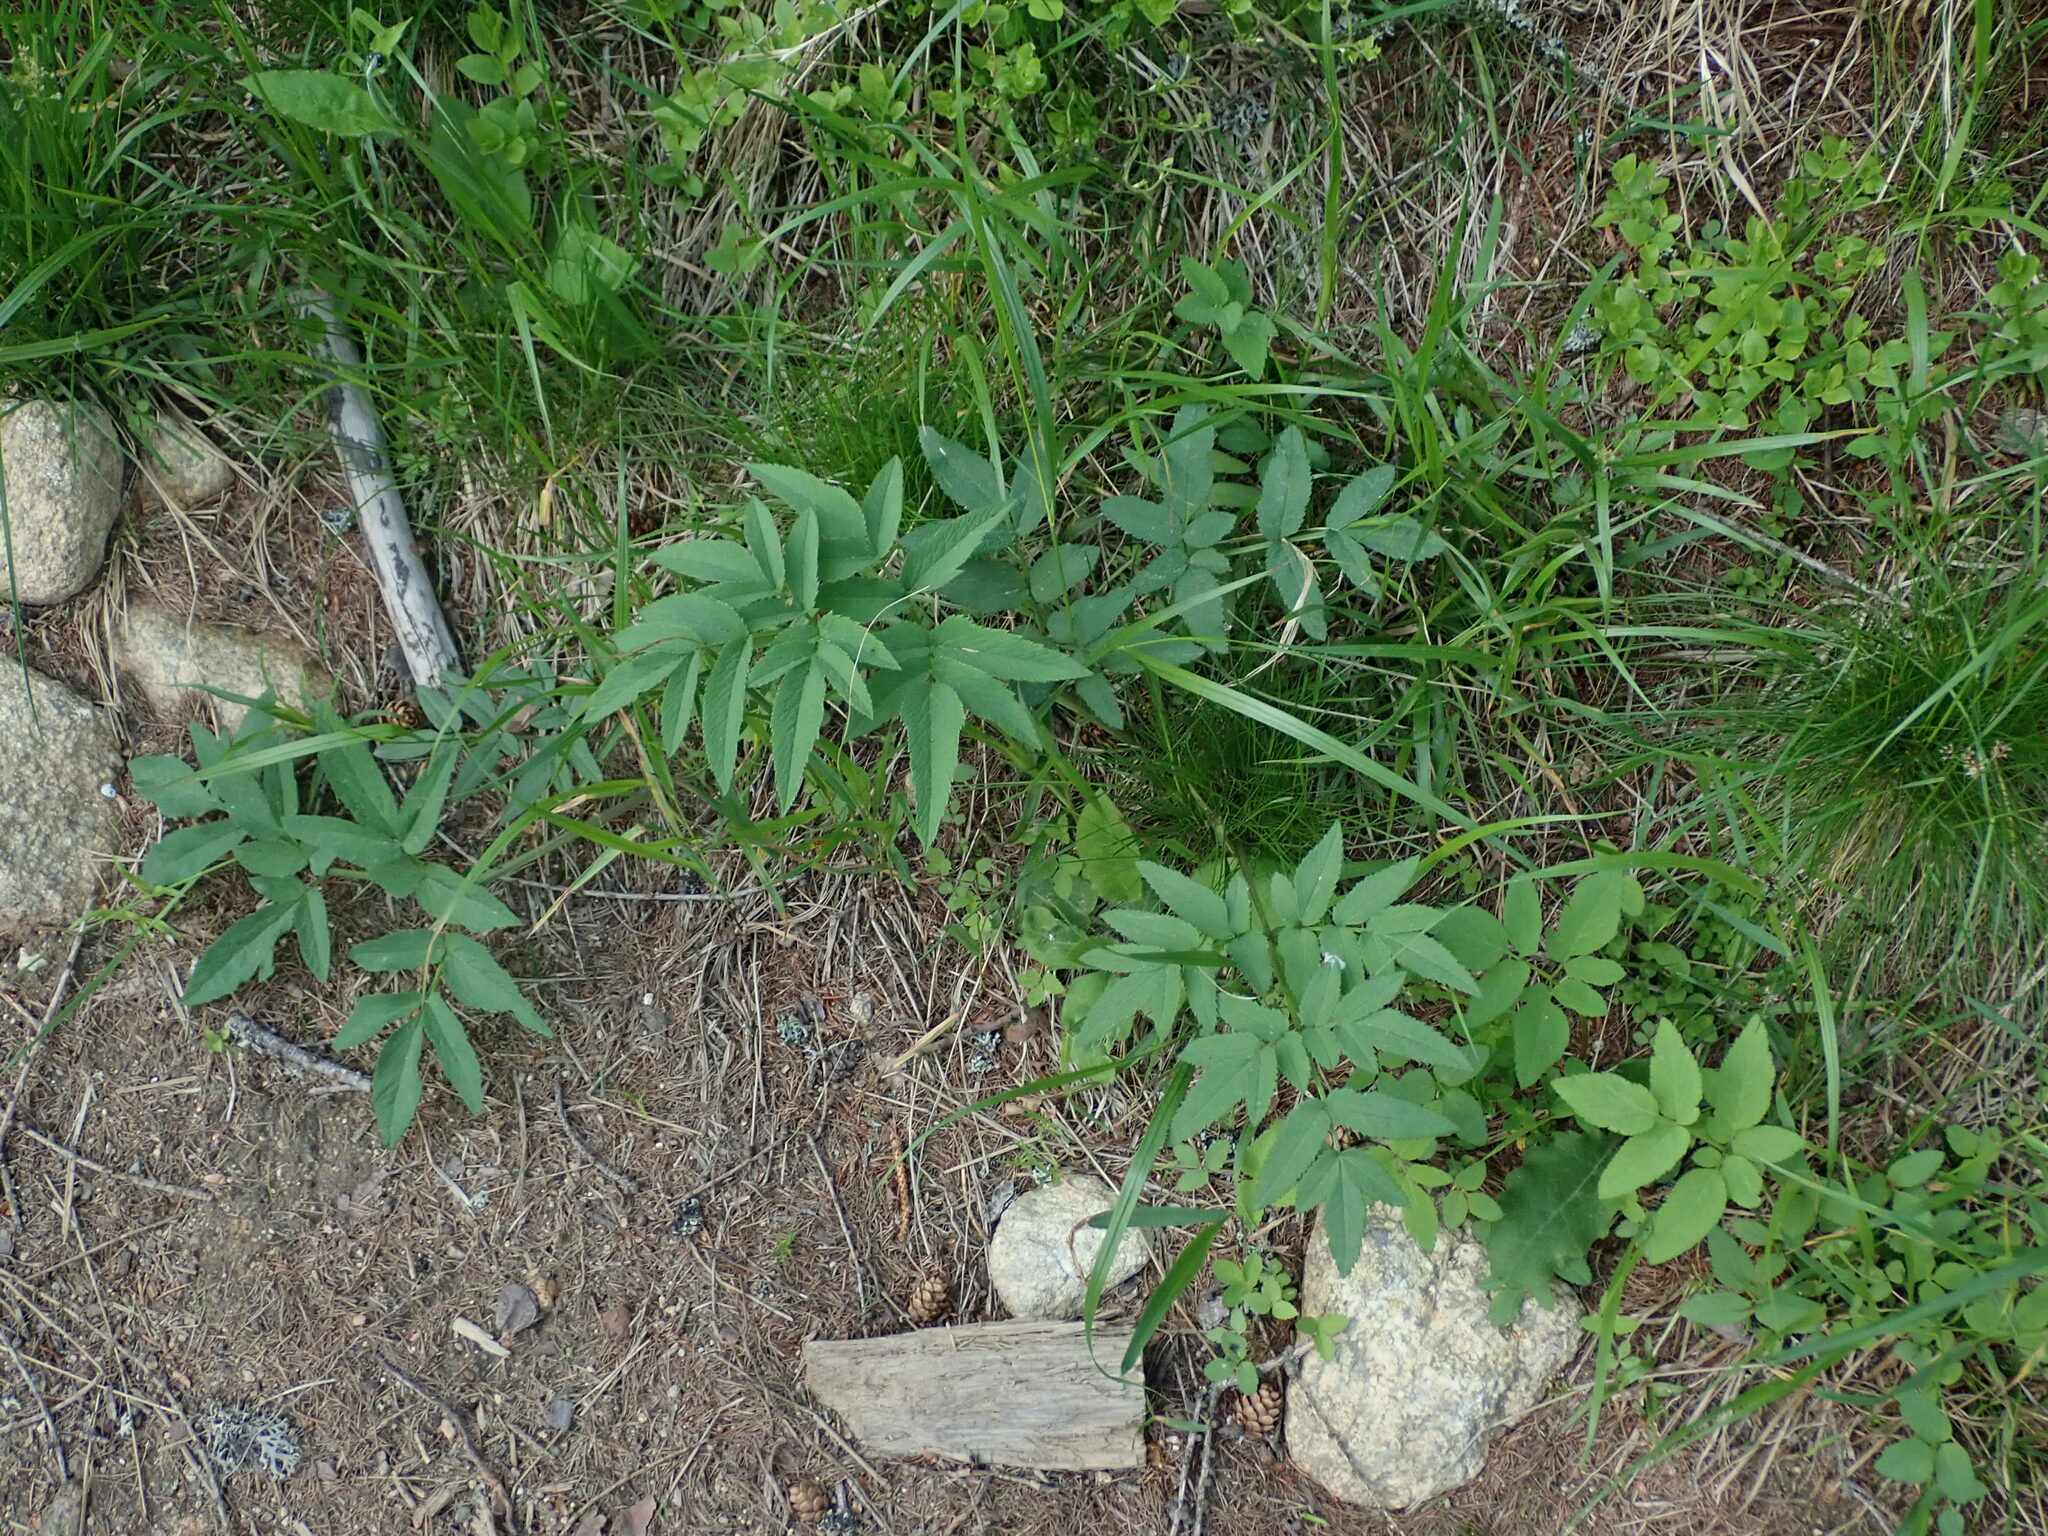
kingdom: Plantae
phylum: Tracheophyta
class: Magnoliopsida
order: Apiales
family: Apiaceae
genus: Angelica
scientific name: Angelica sylvestris
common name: Wild angelica
